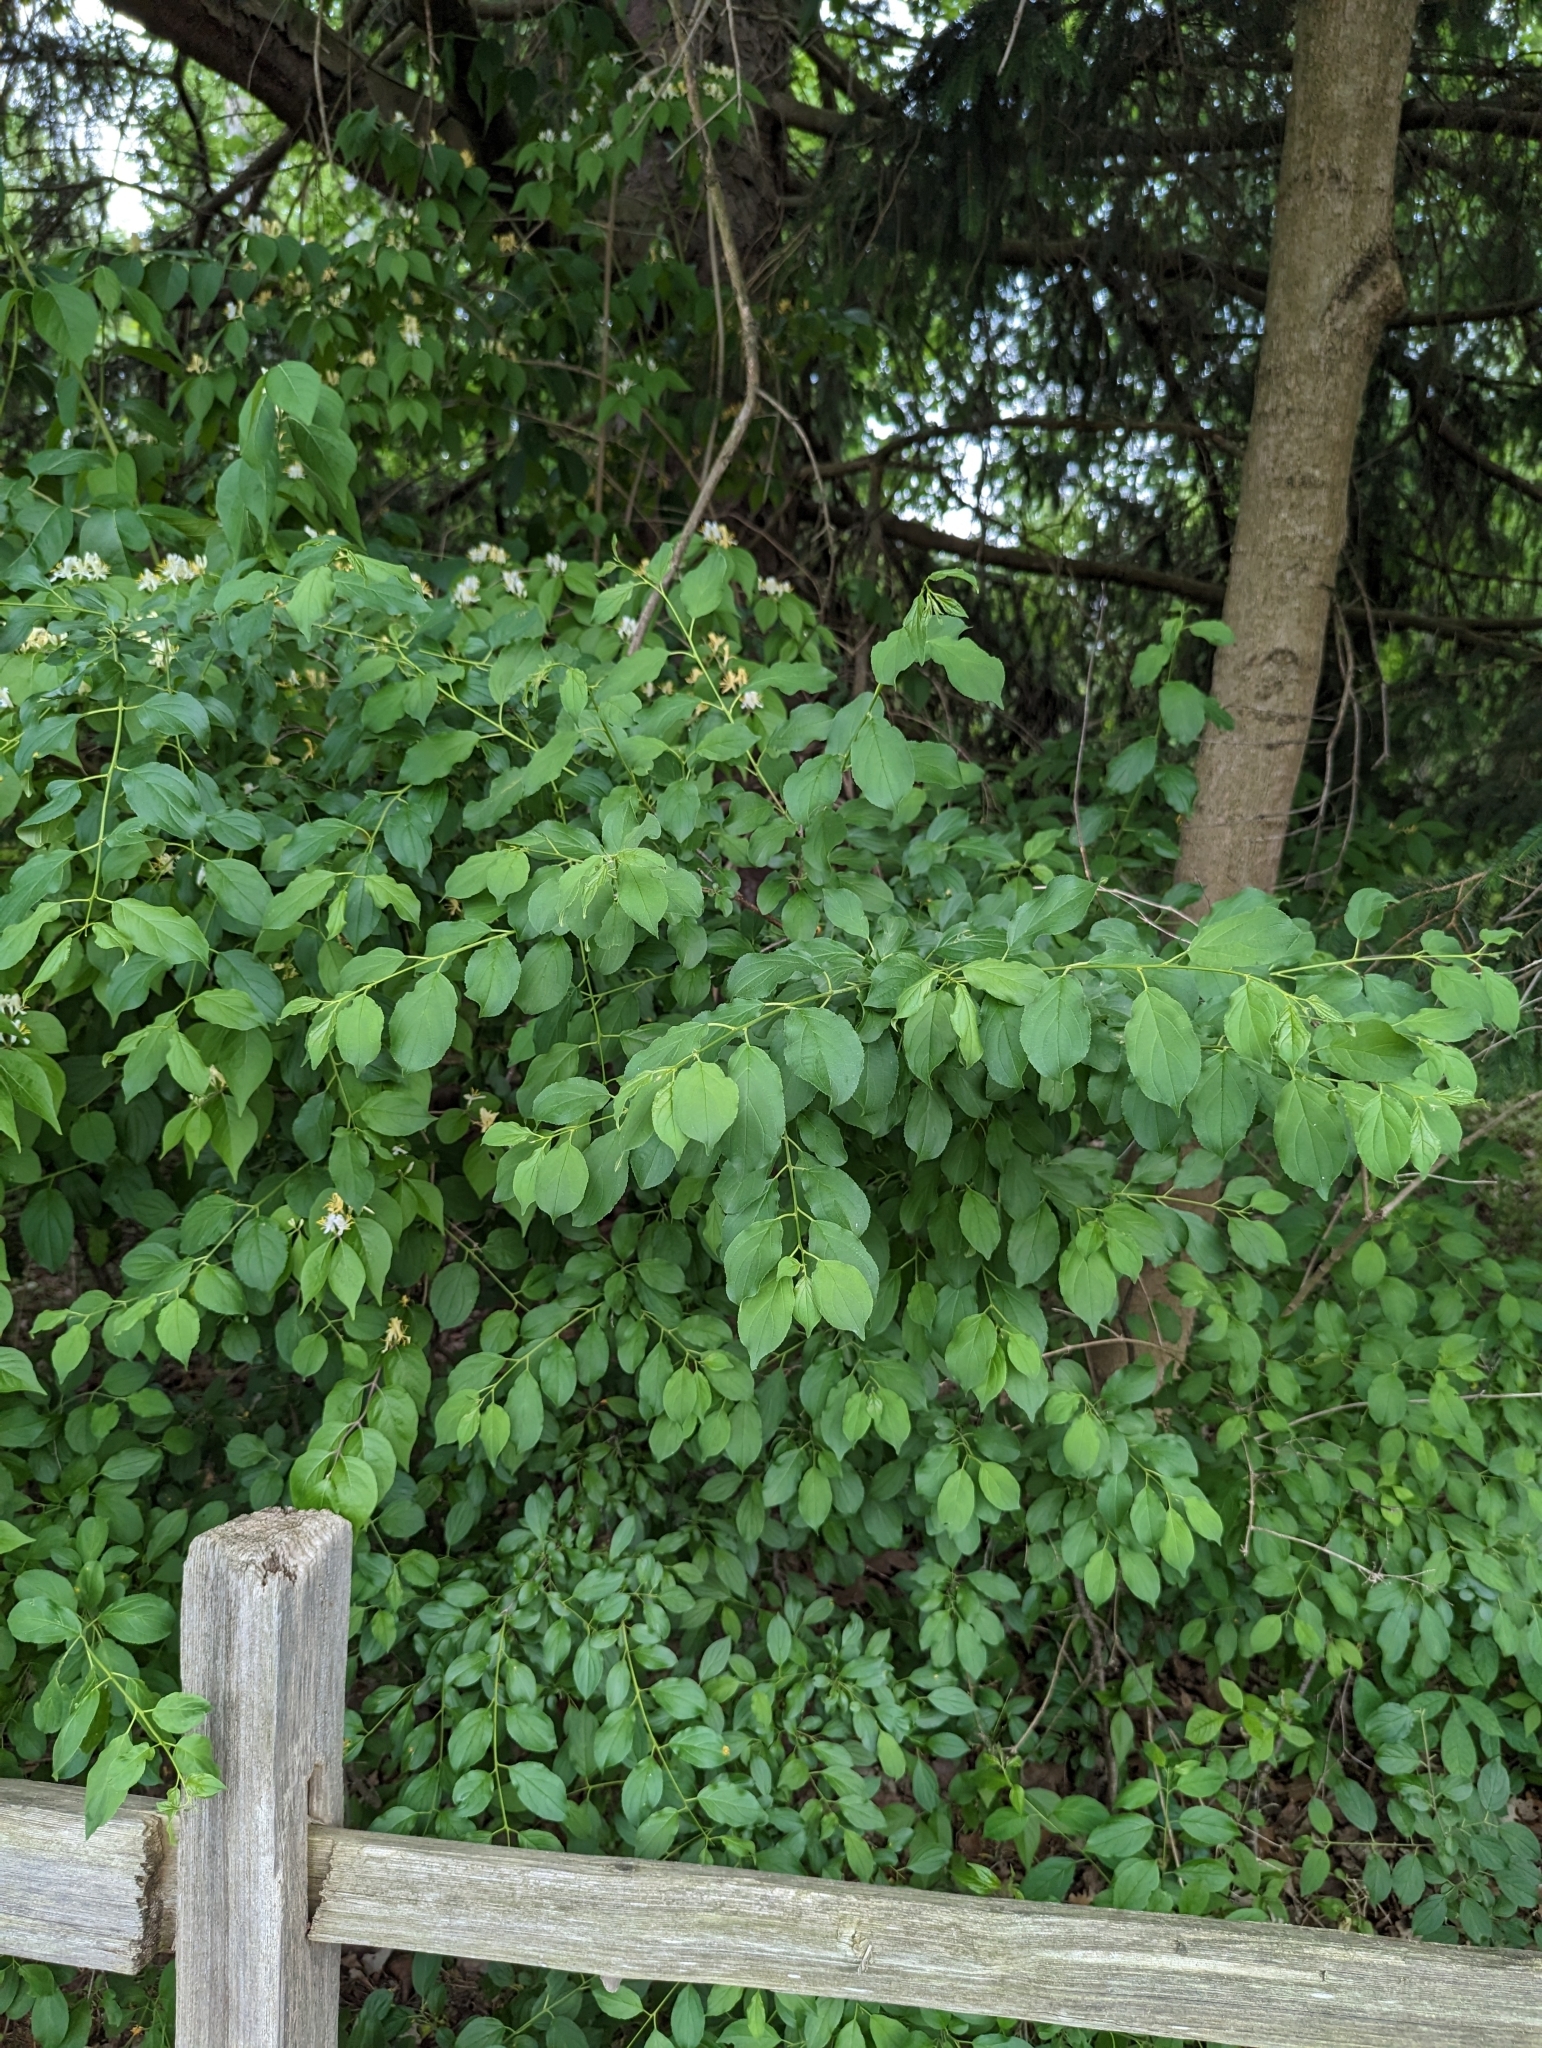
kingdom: Plantae
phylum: Tracheophyta
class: Magnoliopsida
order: Rosales
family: Rhamnaceae
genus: Rhamnus
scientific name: Rhamnus cathartica
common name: Common buckthorn
